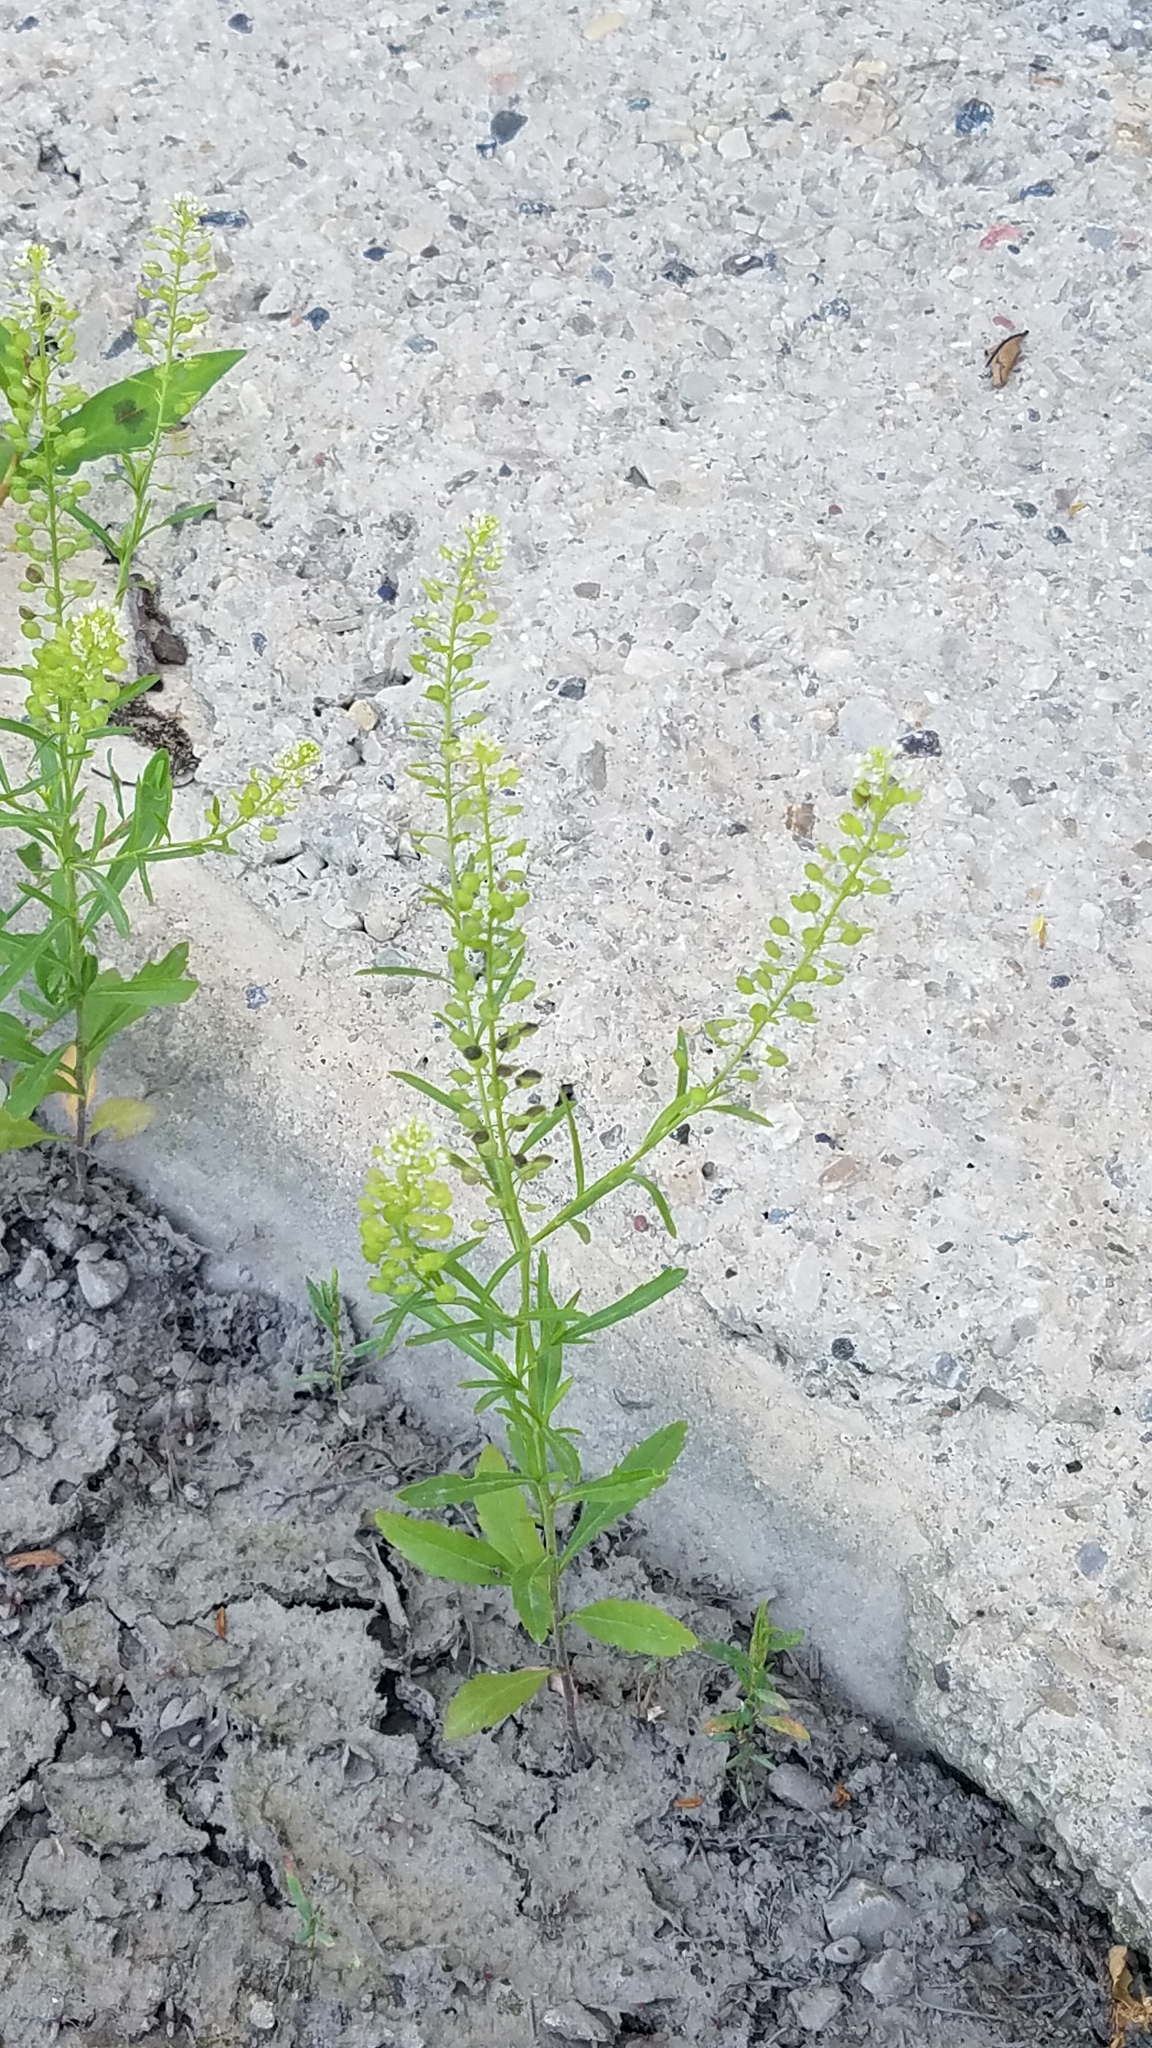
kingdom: Plantae
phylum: Tracheophyta
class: Magnoliopsida
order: Brassicales
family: Brassicaceae
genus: Lepidium
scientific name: Lepidium virginicum
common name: Least pepperwort
